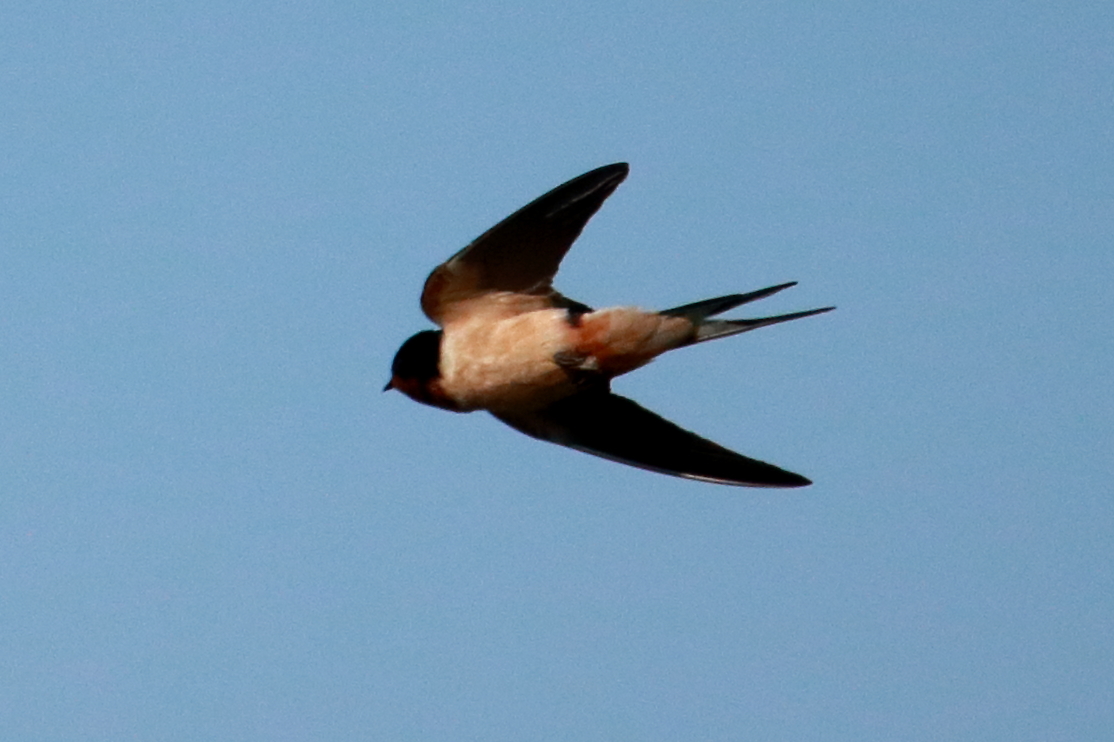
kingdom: Animalia
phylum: Chordata
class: Aves
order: Passeriformes
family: Hirundinidae
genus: Hirundo
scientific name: Hirundo rustica
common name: Barn swallow
